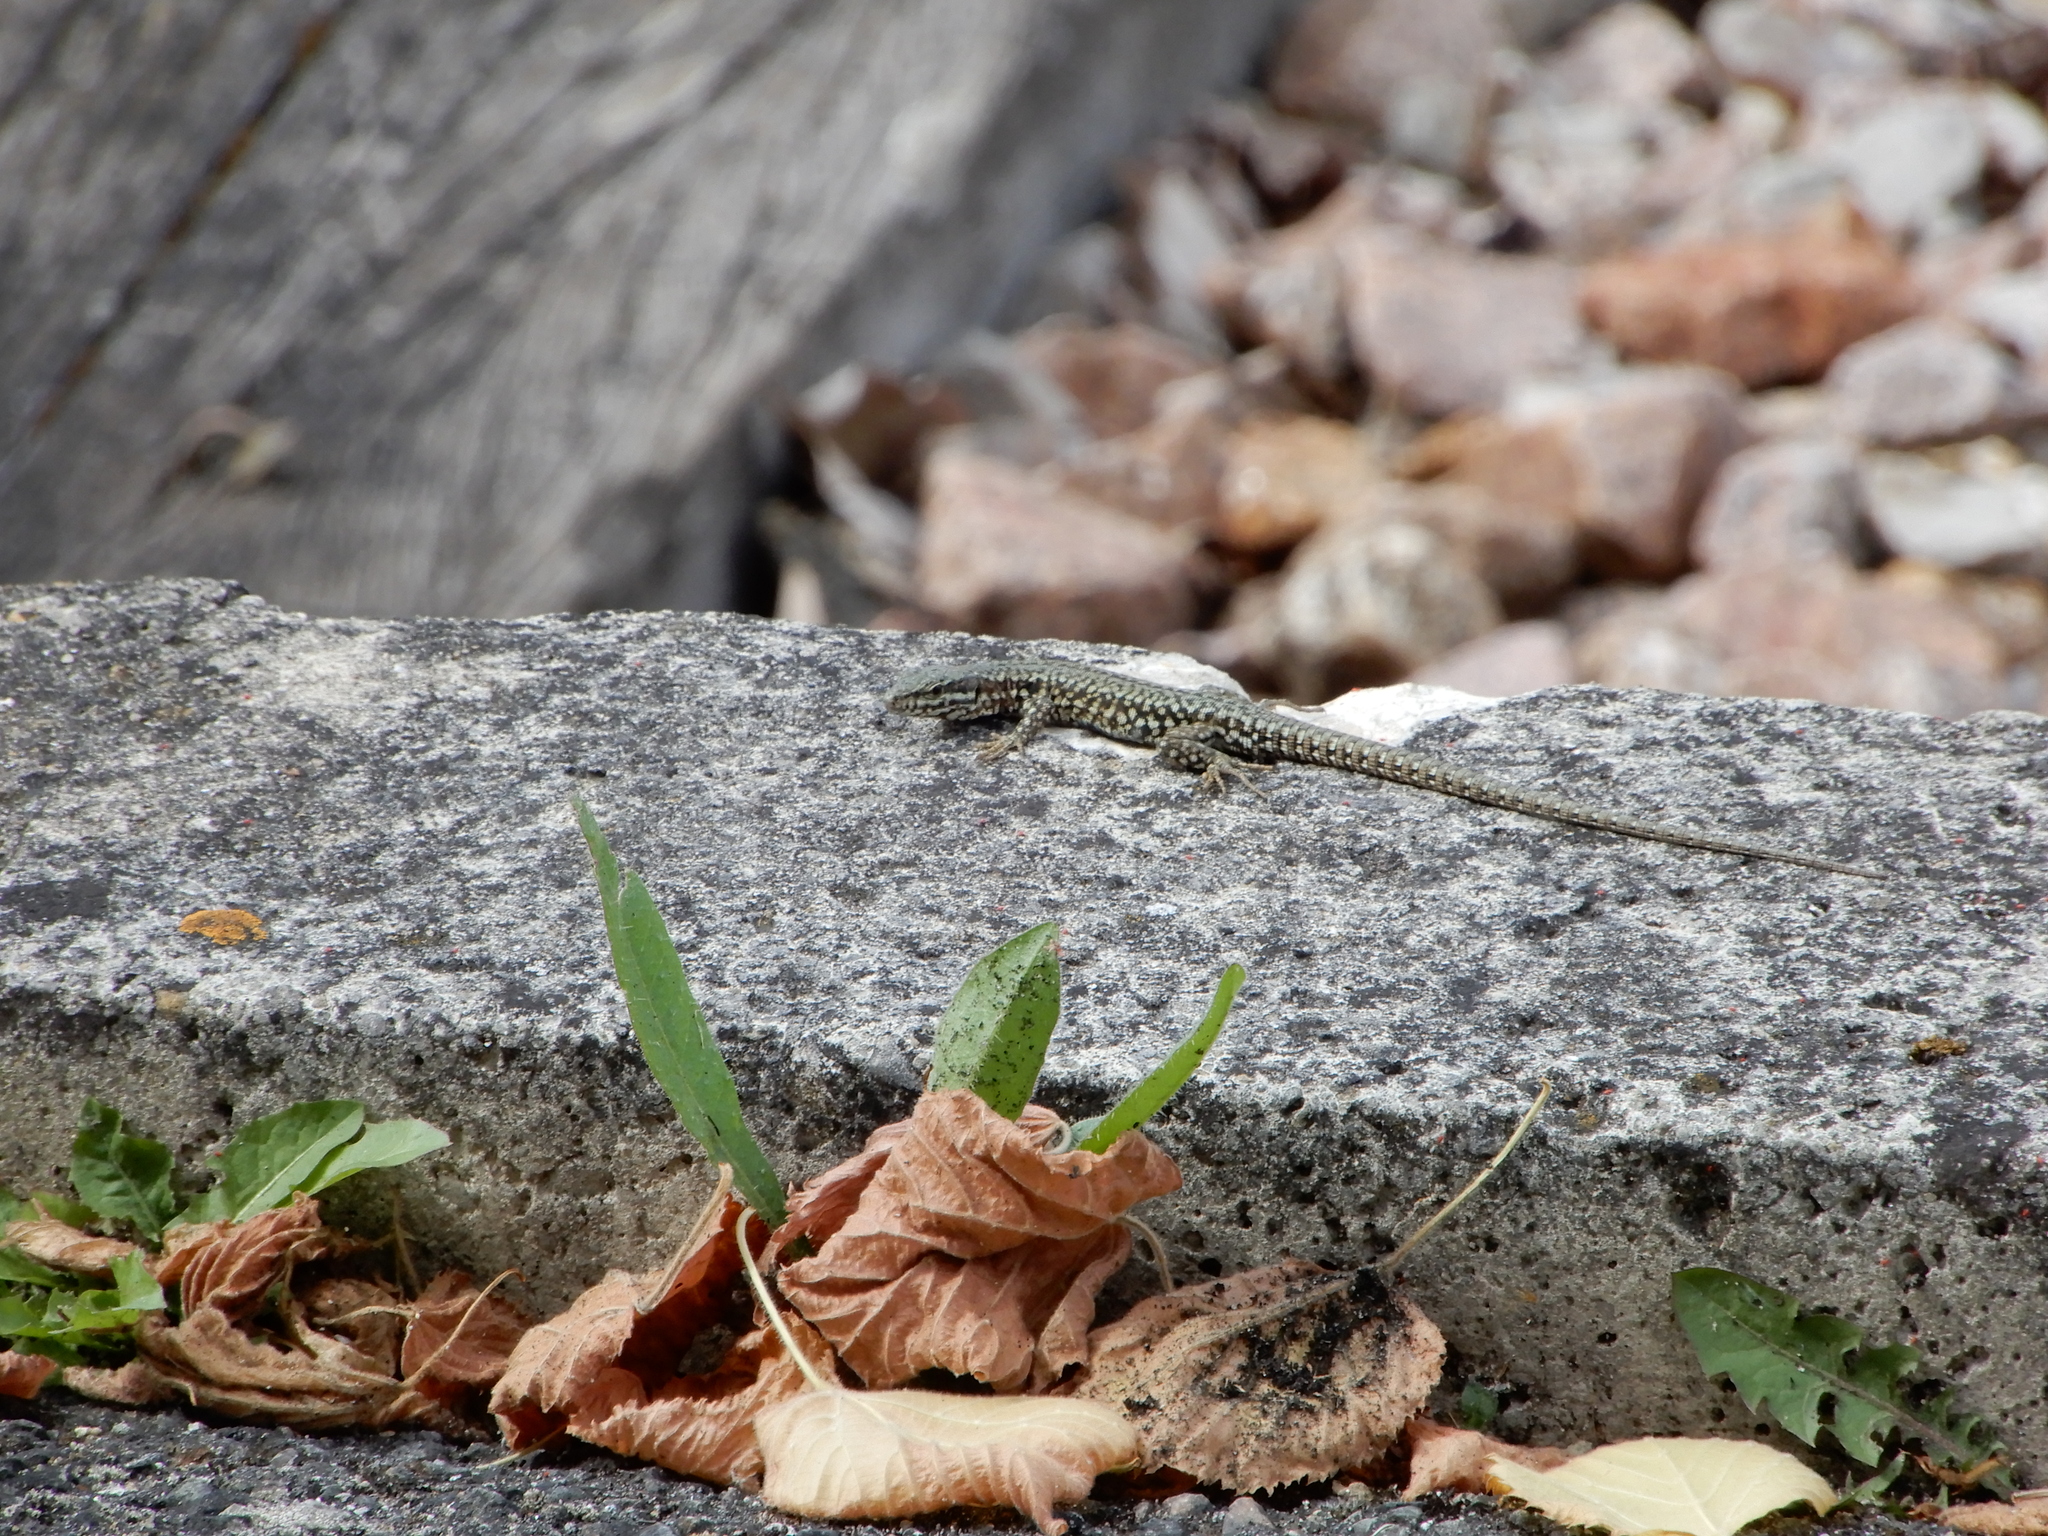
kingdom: Animalia
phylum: Chordata
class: Squamata
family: Lacertidae
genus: Podarcis
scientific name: Podarcis muralis
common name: Common wall lizard
